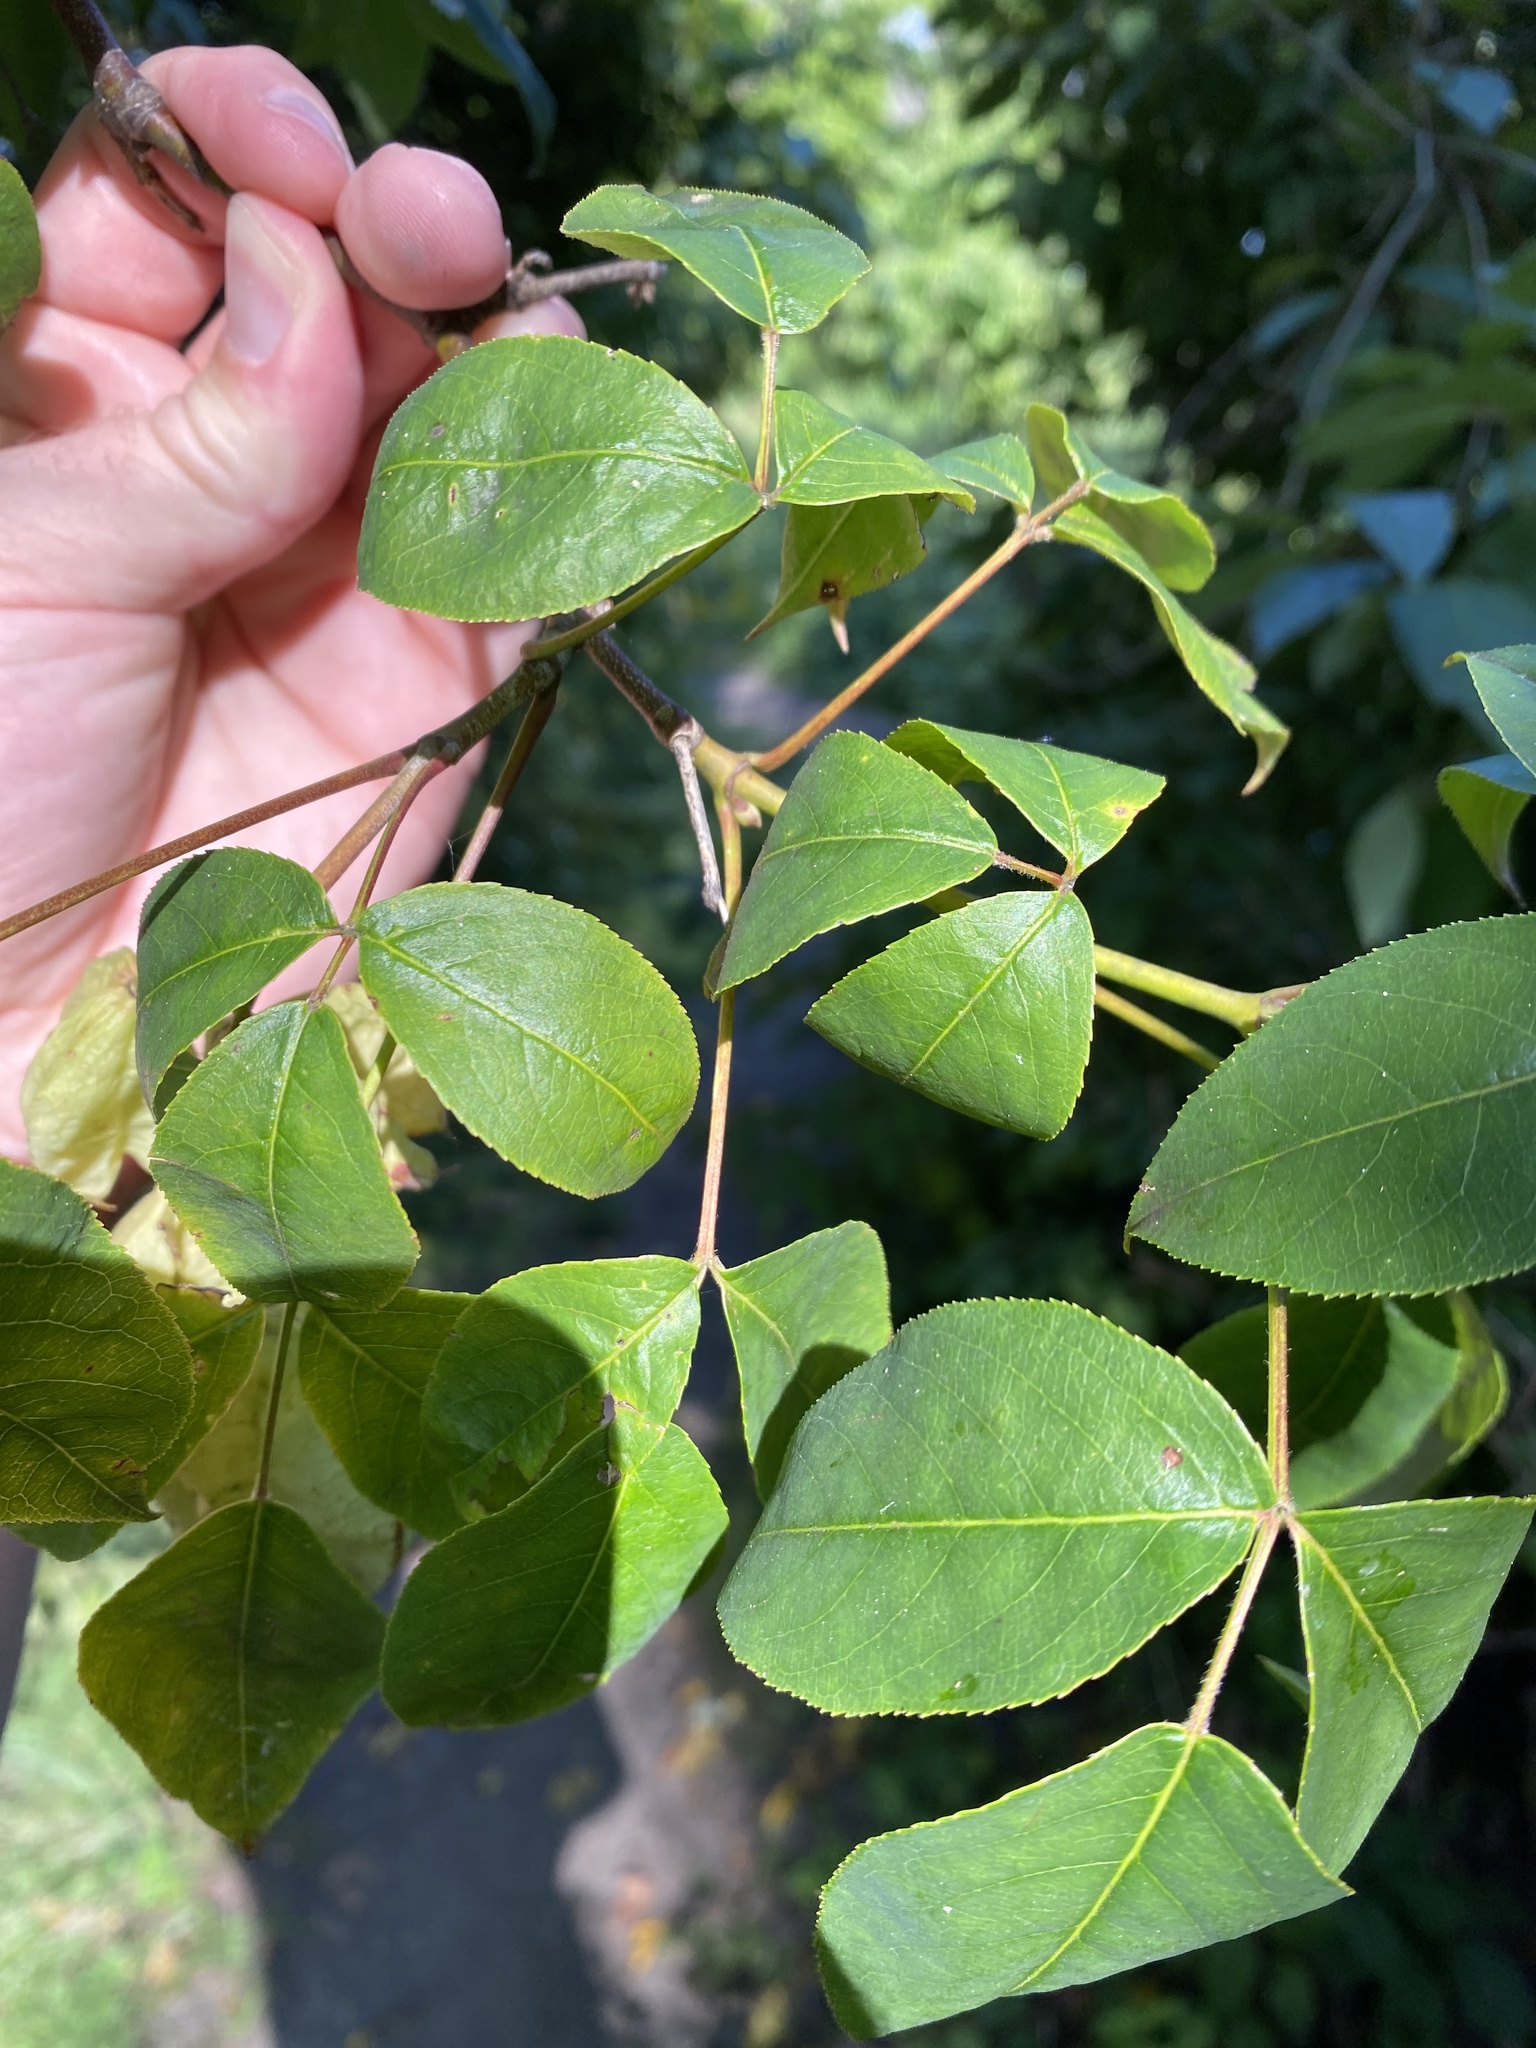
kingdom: Plantae
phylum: Tracheophyta
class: Magnoliopsida
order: Crossosomatales
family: Staphyleaceae
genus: Staphylea
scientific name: Staphylea trifolia
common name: American bladdernut
